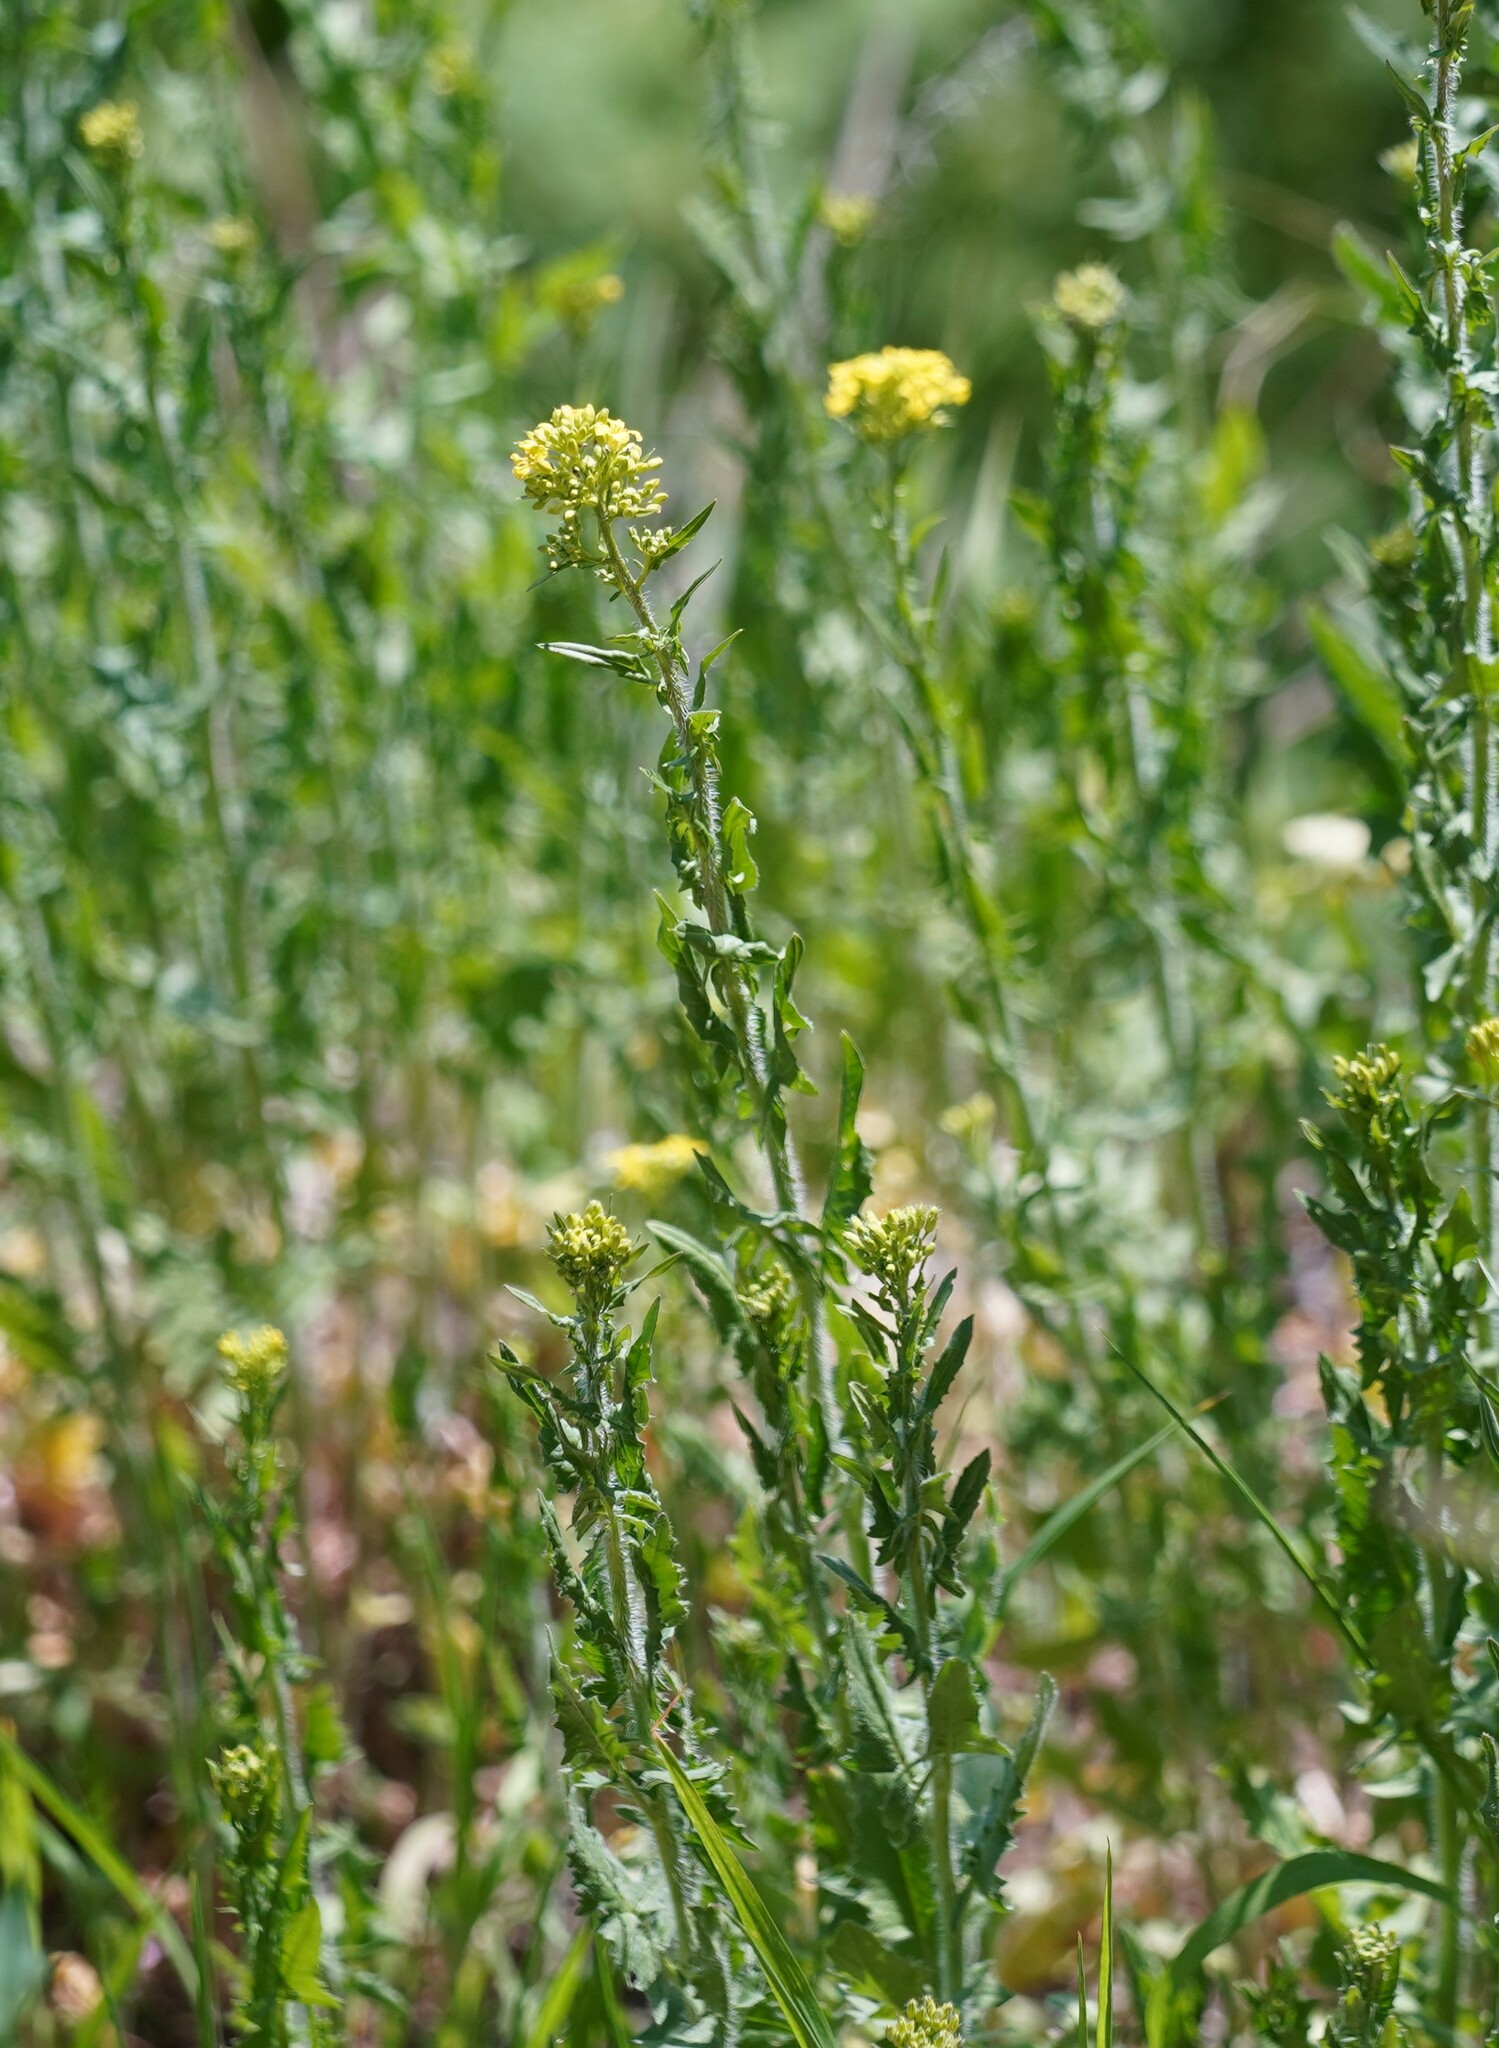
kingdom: Plantae
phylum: Tracheophyta
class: Magnoliopsida
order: Brassicales
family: Brassicaceae
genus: Sisymbrium
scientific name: Sisymbrium loeselii
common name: False london-rocket
